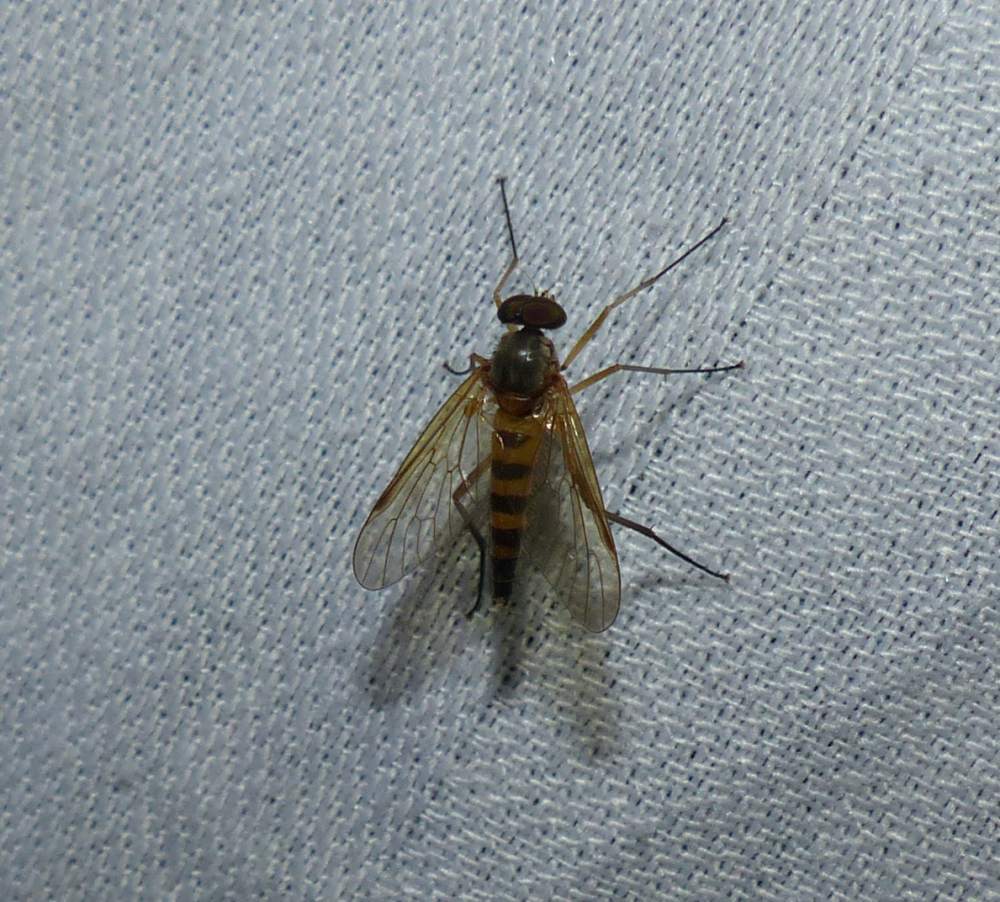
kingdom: Animalia
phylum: Arthropoda
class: Insecta
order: Diptera
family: Rhagionidae
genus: Rhagio
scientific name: Rhagio lineola
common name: Small fleck-winged snipefly
